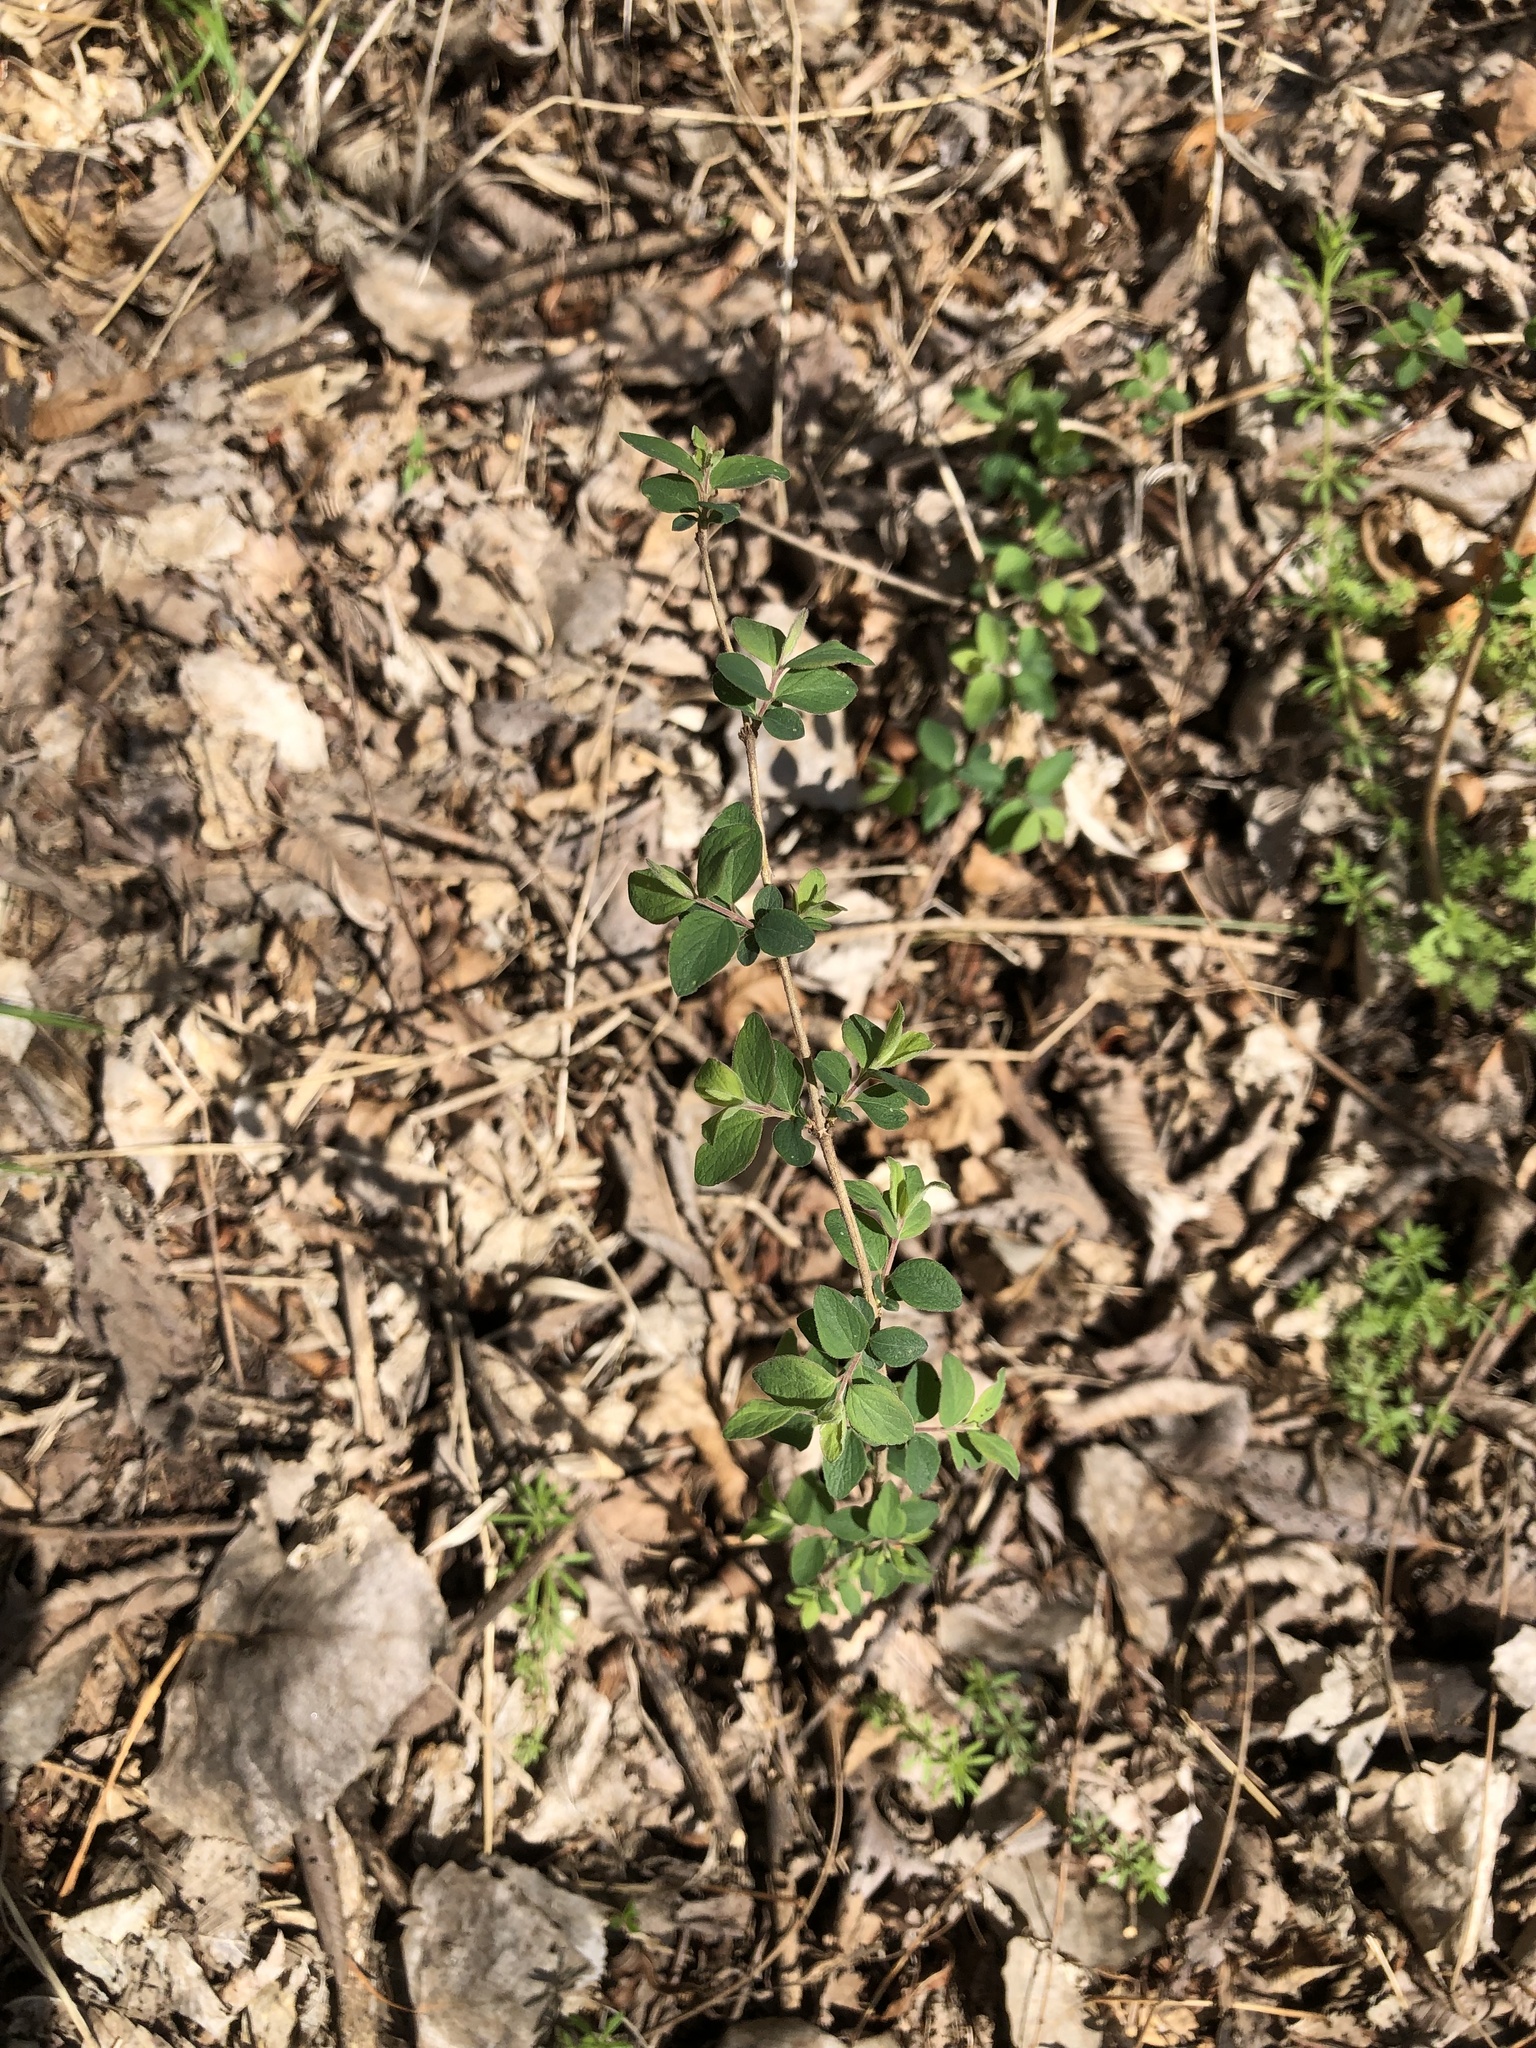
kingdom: Plantae
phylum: Tracheophyta
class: Magnoliopsida
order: Dipsacales
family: Caprifoliaceae
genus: Symphoricarpos
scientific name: Symphoricarpos orbiculatus
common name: Coralberry
